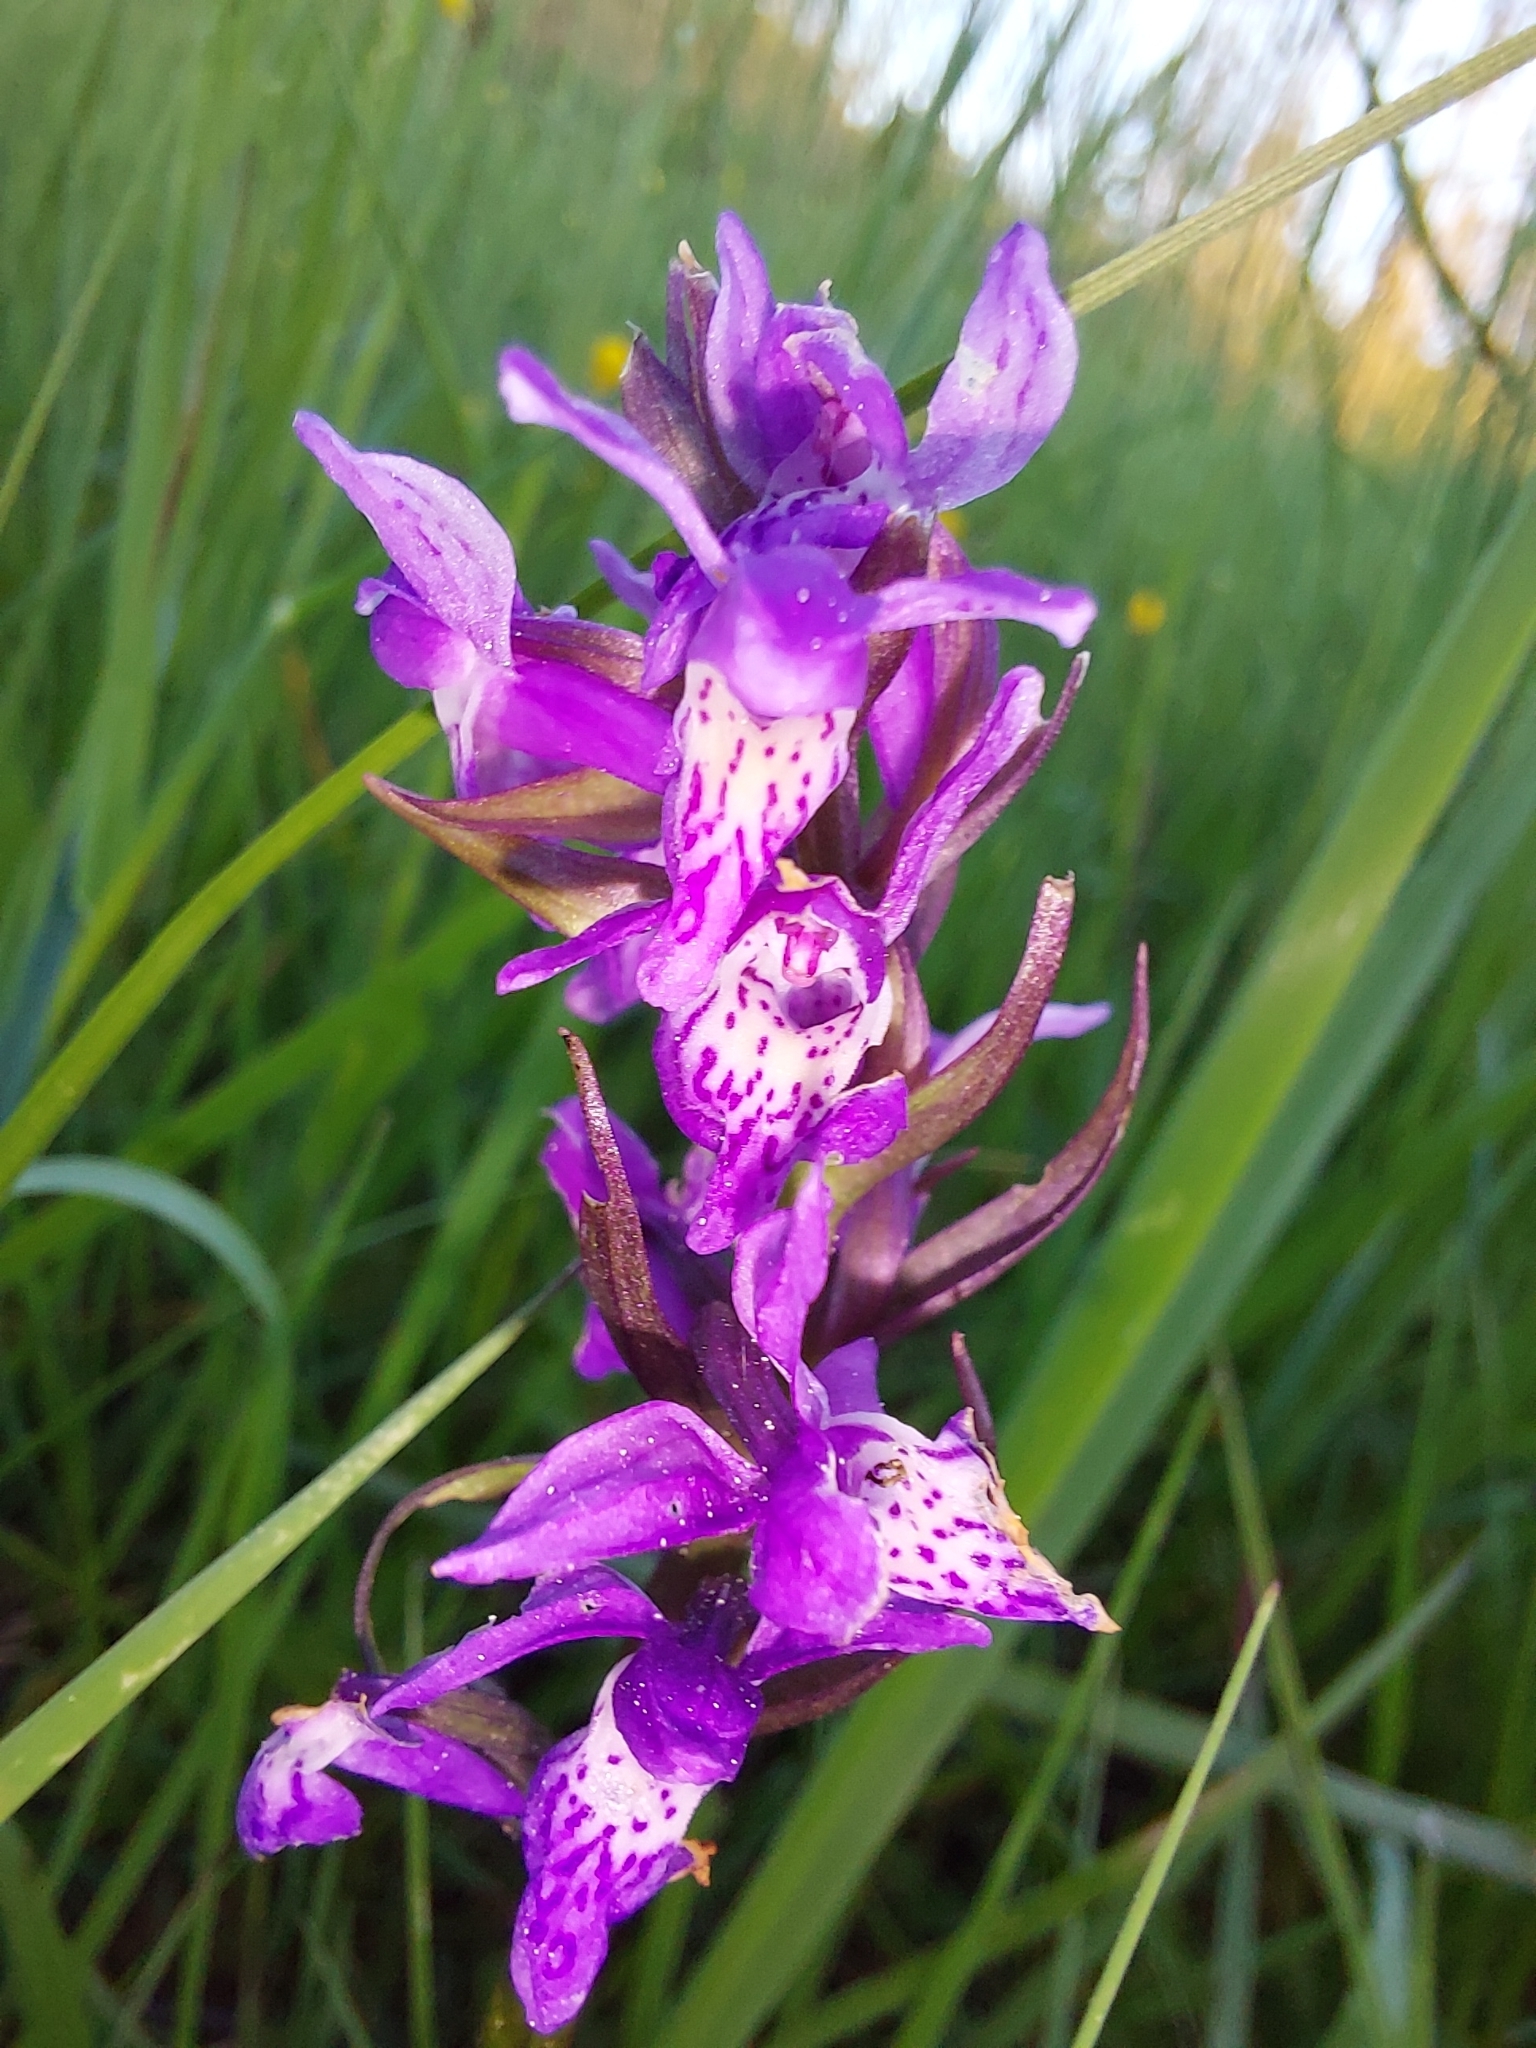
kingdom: Plantae
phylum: Tracheophyta
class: Liliopsida
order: Asparagales
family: Orchidaceae
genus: Dactylorhiza
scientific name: Dactylorhiza majalis
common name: Marsh orchid
